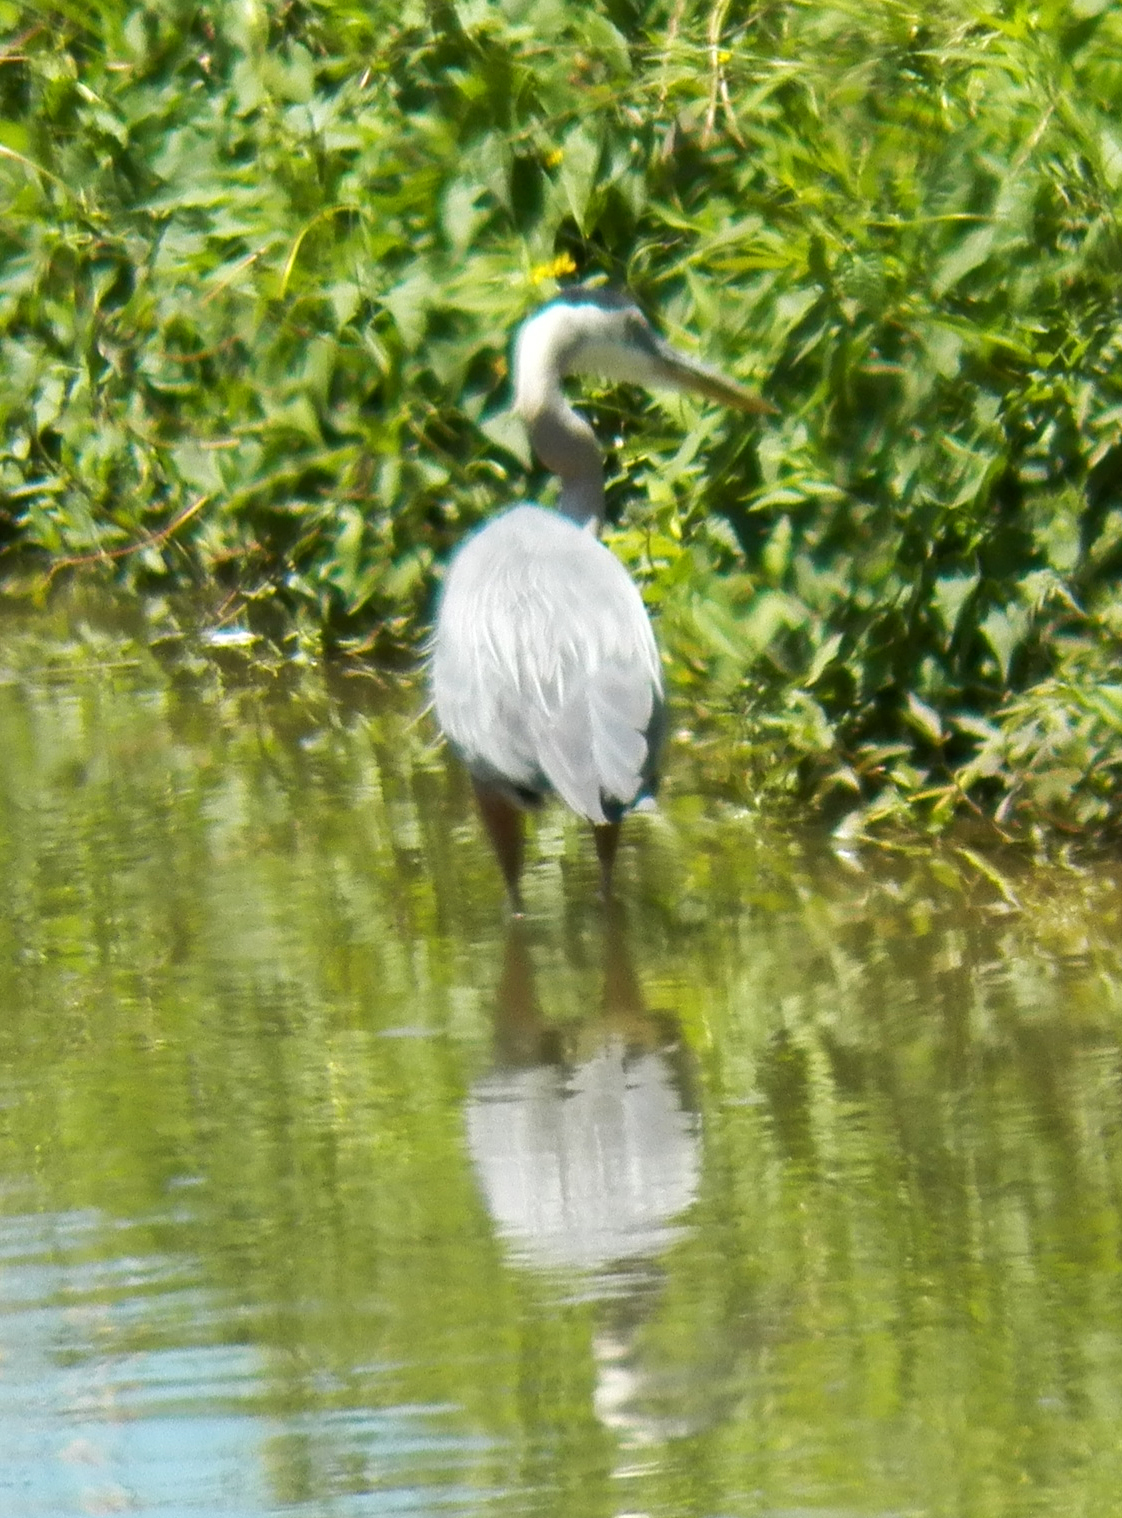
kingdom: Animalia
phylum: Chordata
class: Aves
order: Pelecaniformes
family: Ardeidae
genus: Ardea
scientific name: Ardea herodias
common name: Great blue heron
